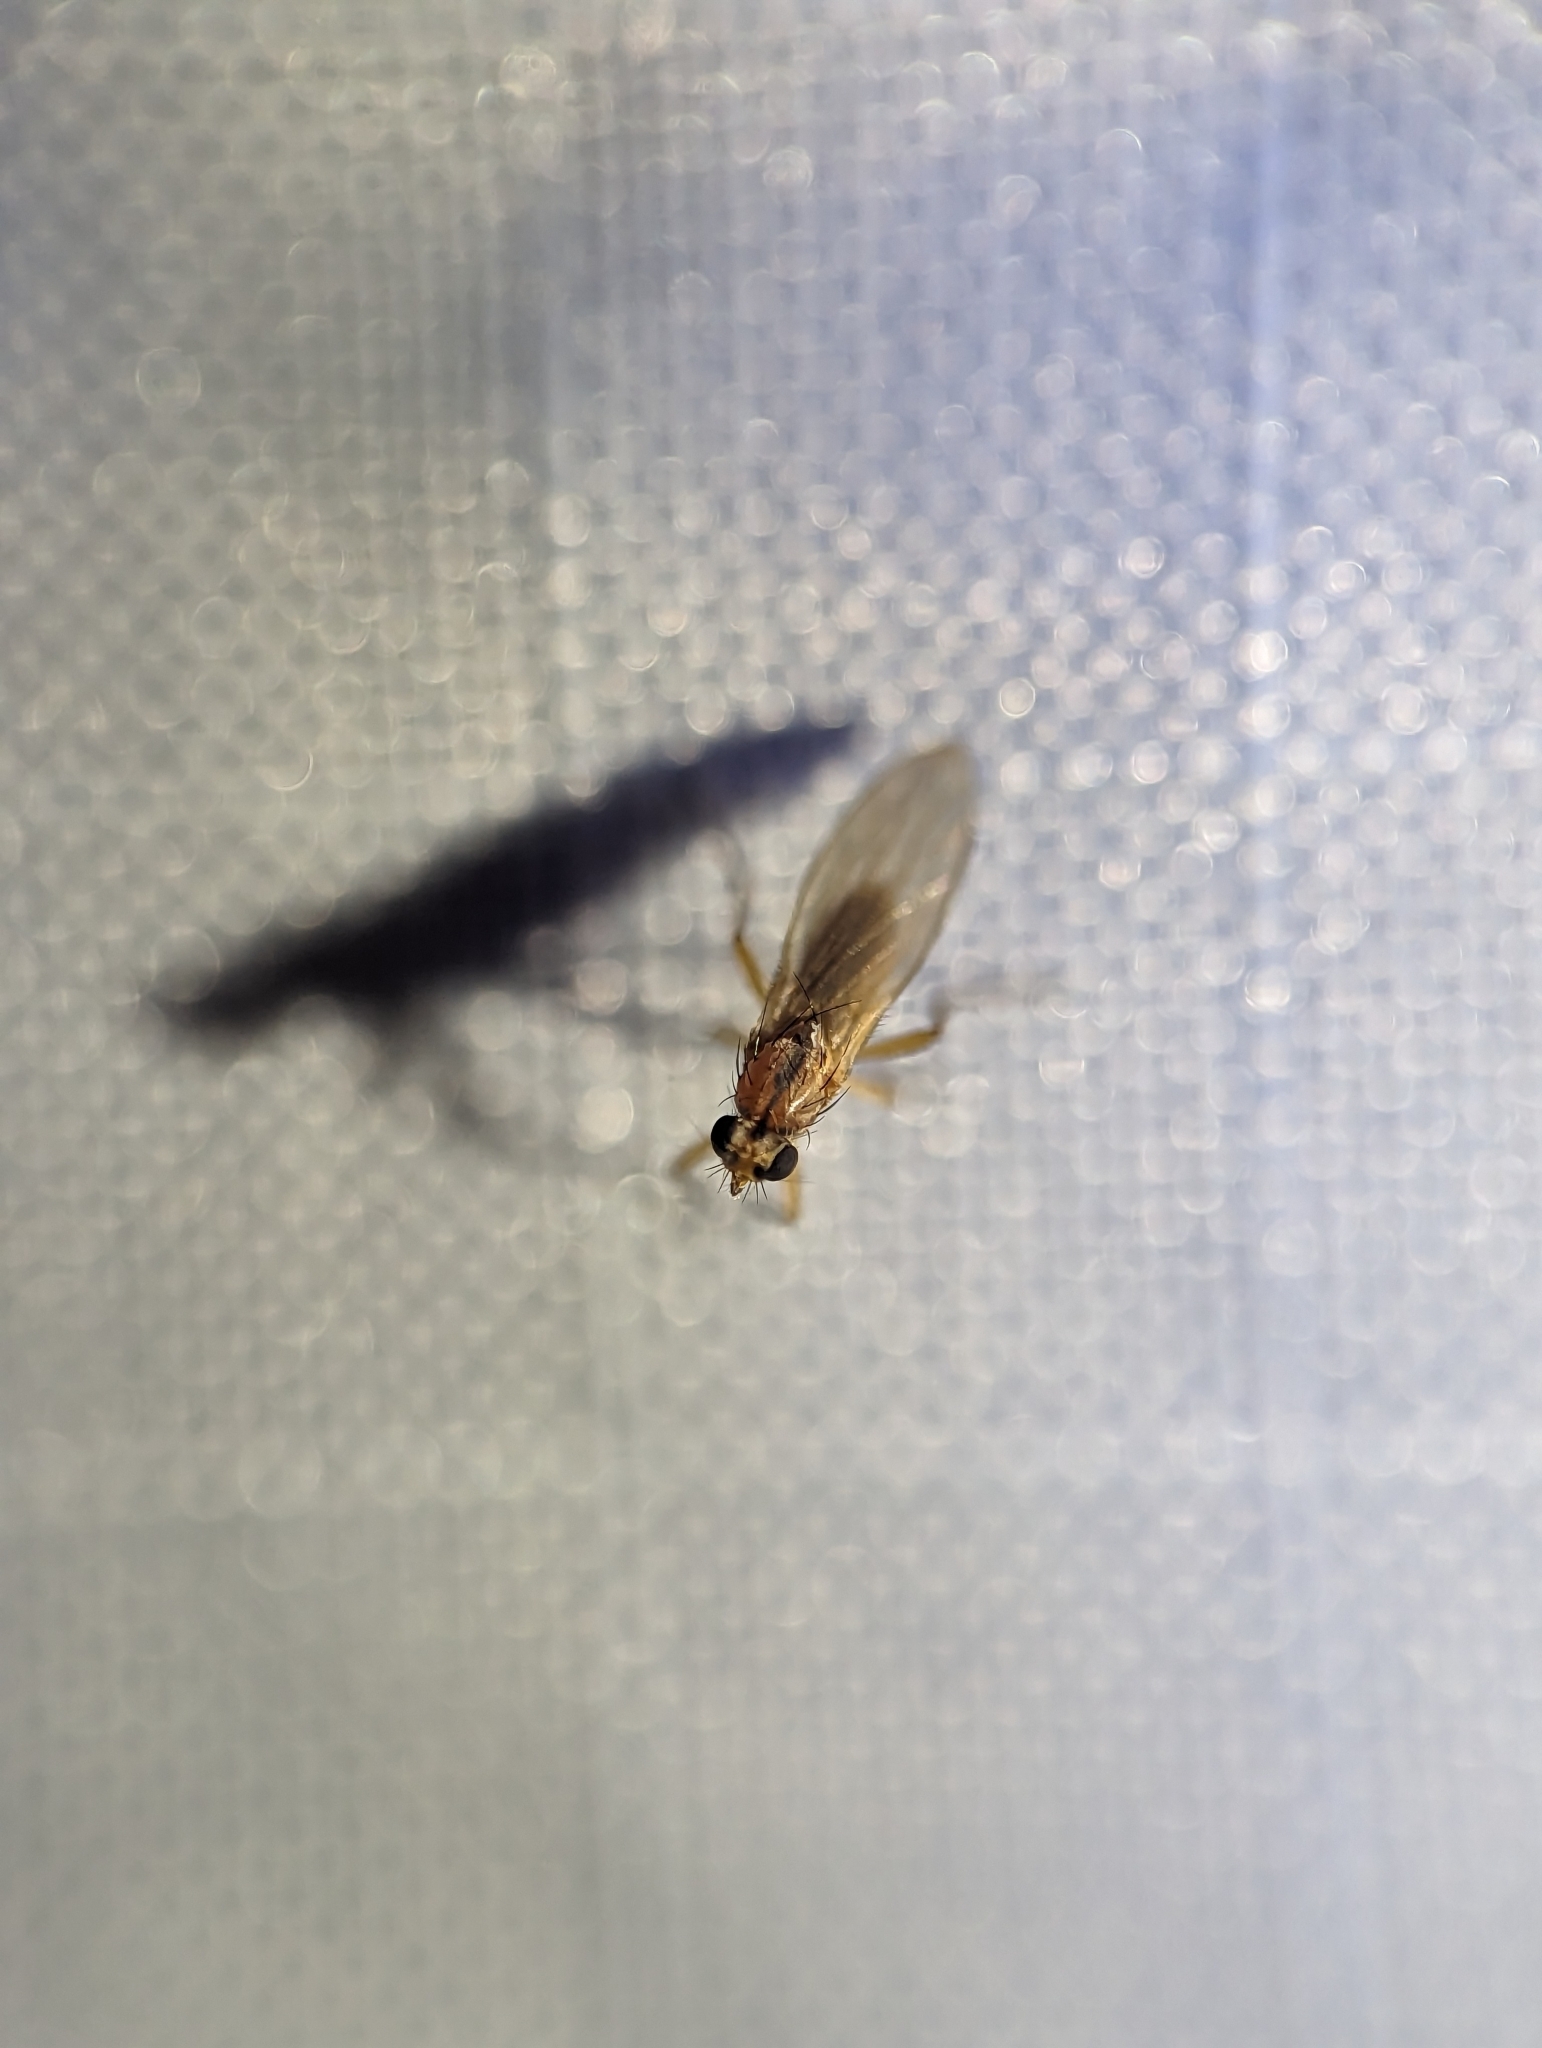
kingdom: Animalia
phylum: Arthropoda
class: Insecta
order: Diptera
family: Lonchopteridae
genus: Lonchoptera
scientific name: Lonchoptera bifurcata
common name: Spear-winged fly
